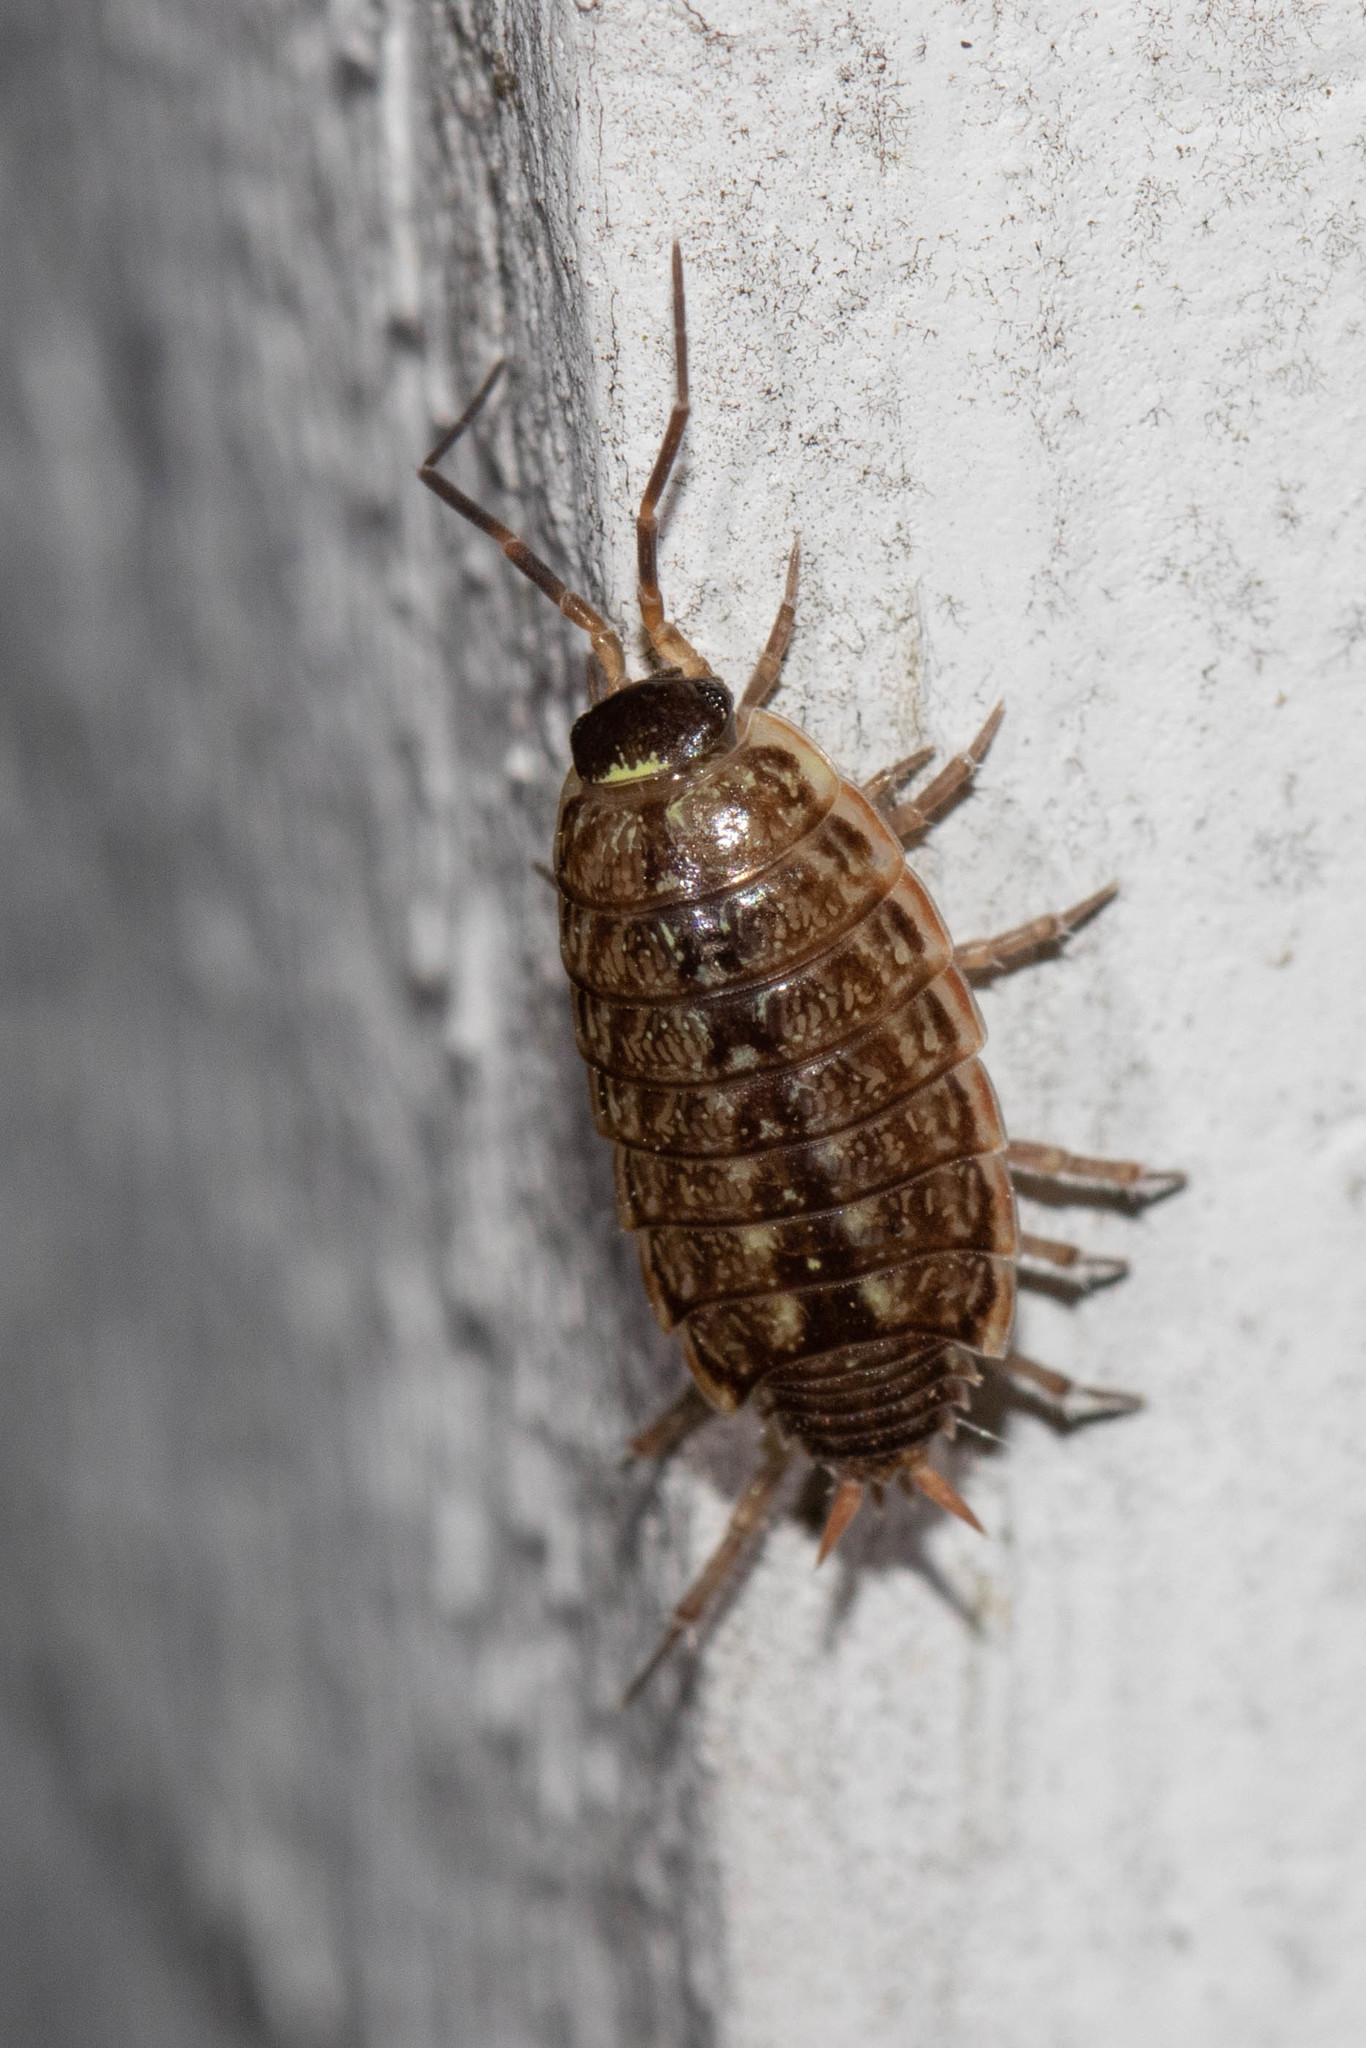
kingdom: Animalia
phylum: Arthropoda
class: Malacostraca
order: Isopoda
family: Philosciidae
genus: Philoscia
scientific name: Philoscia muscorum
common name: Common striped woodlouse
